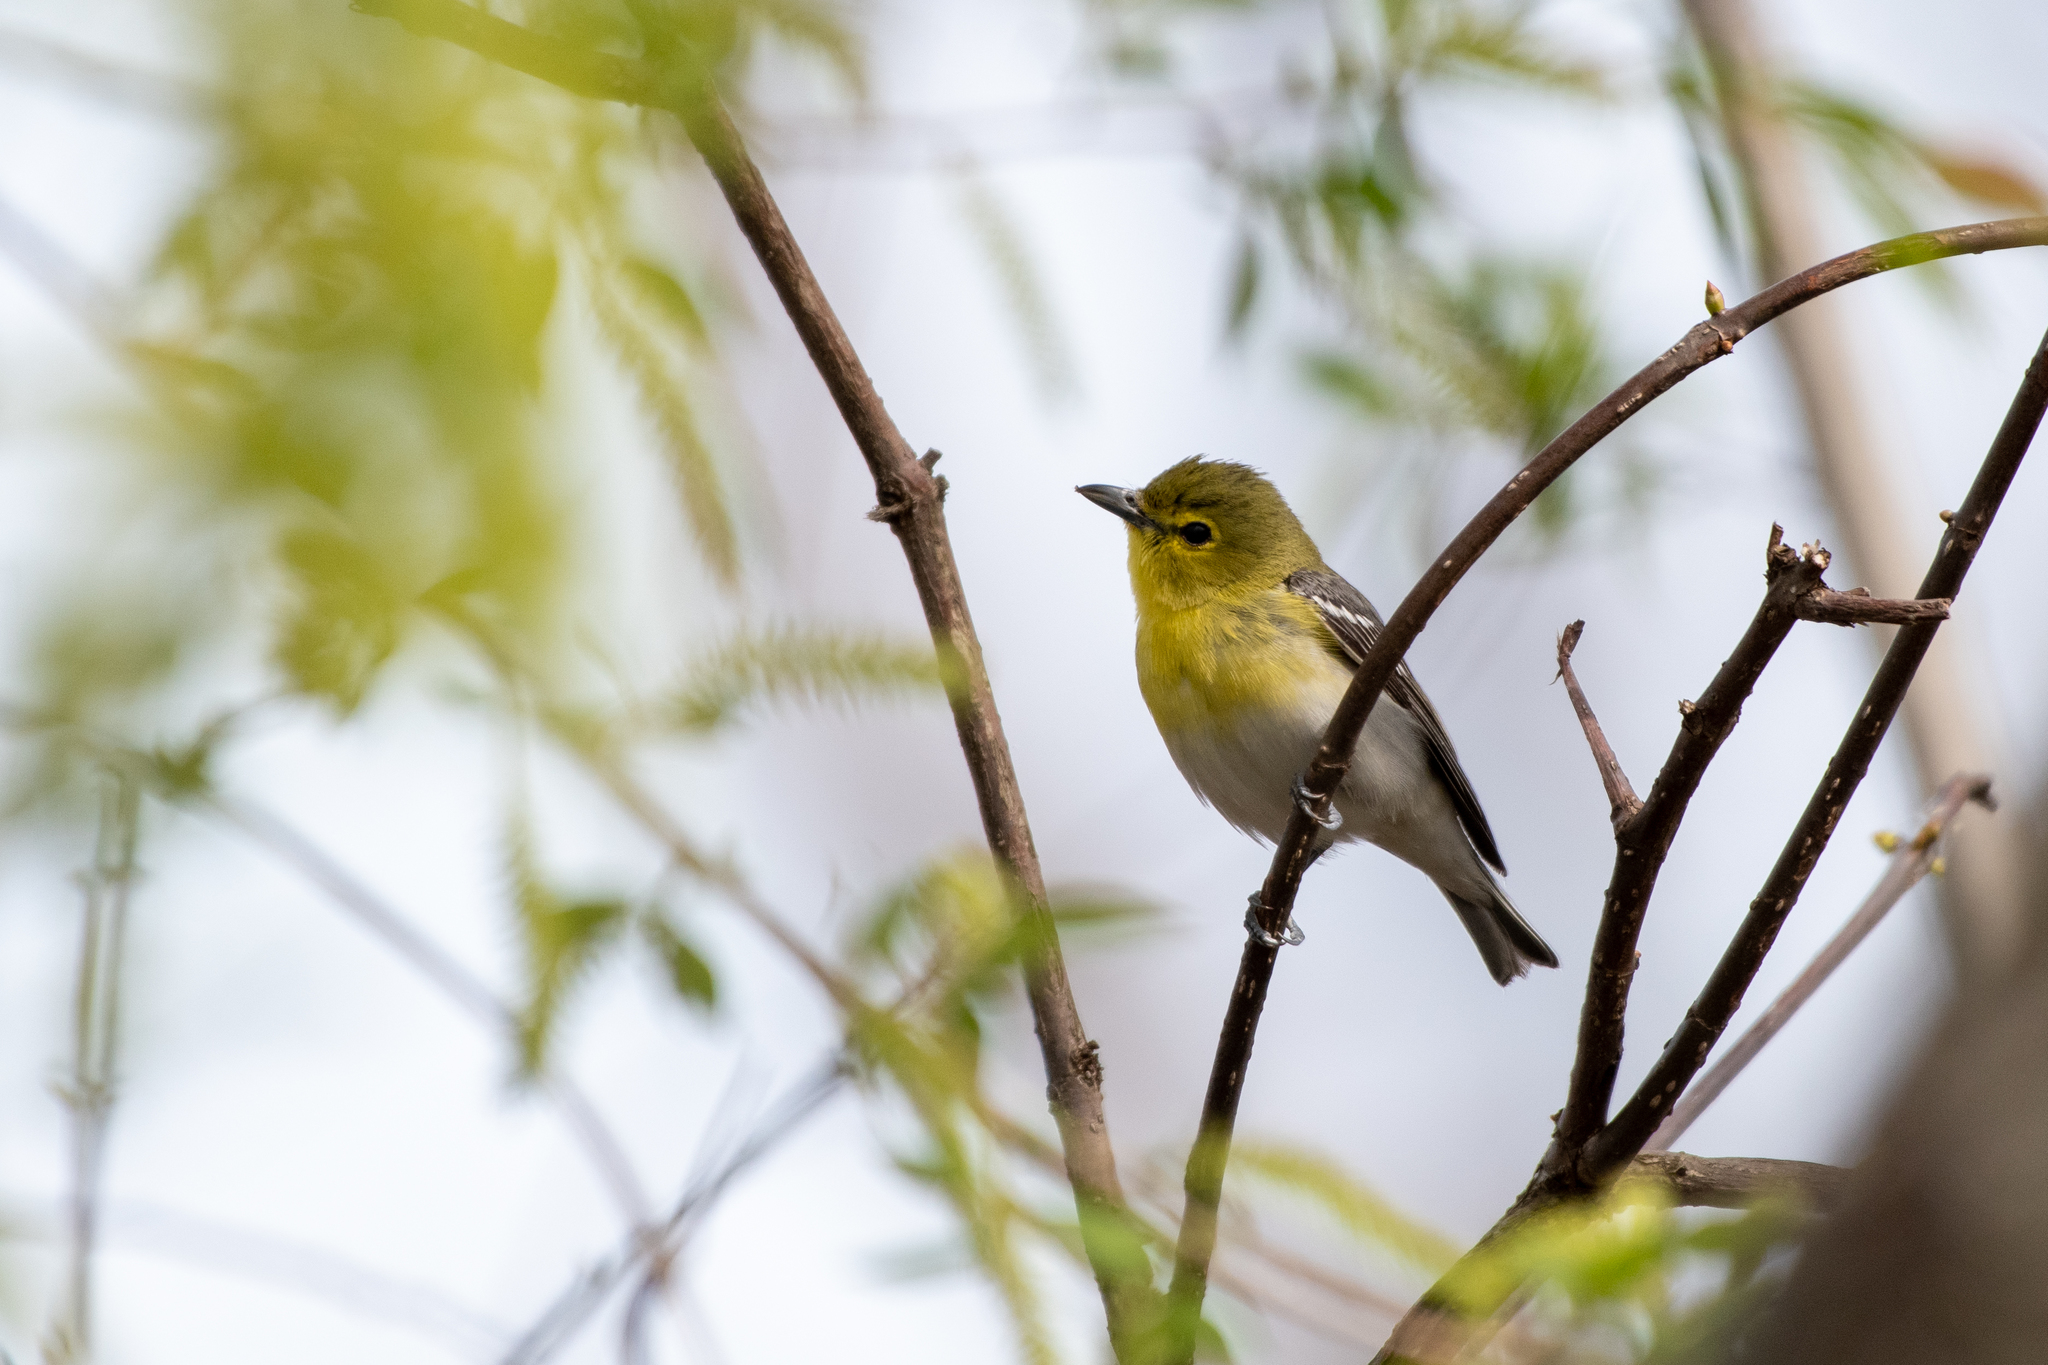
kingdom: Animalia
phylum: Chordata
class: Aves
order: Passeriformes
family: Vireonidae
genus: Vireo
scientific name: Vireo flavifrons
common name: Yellow-throated vireo
